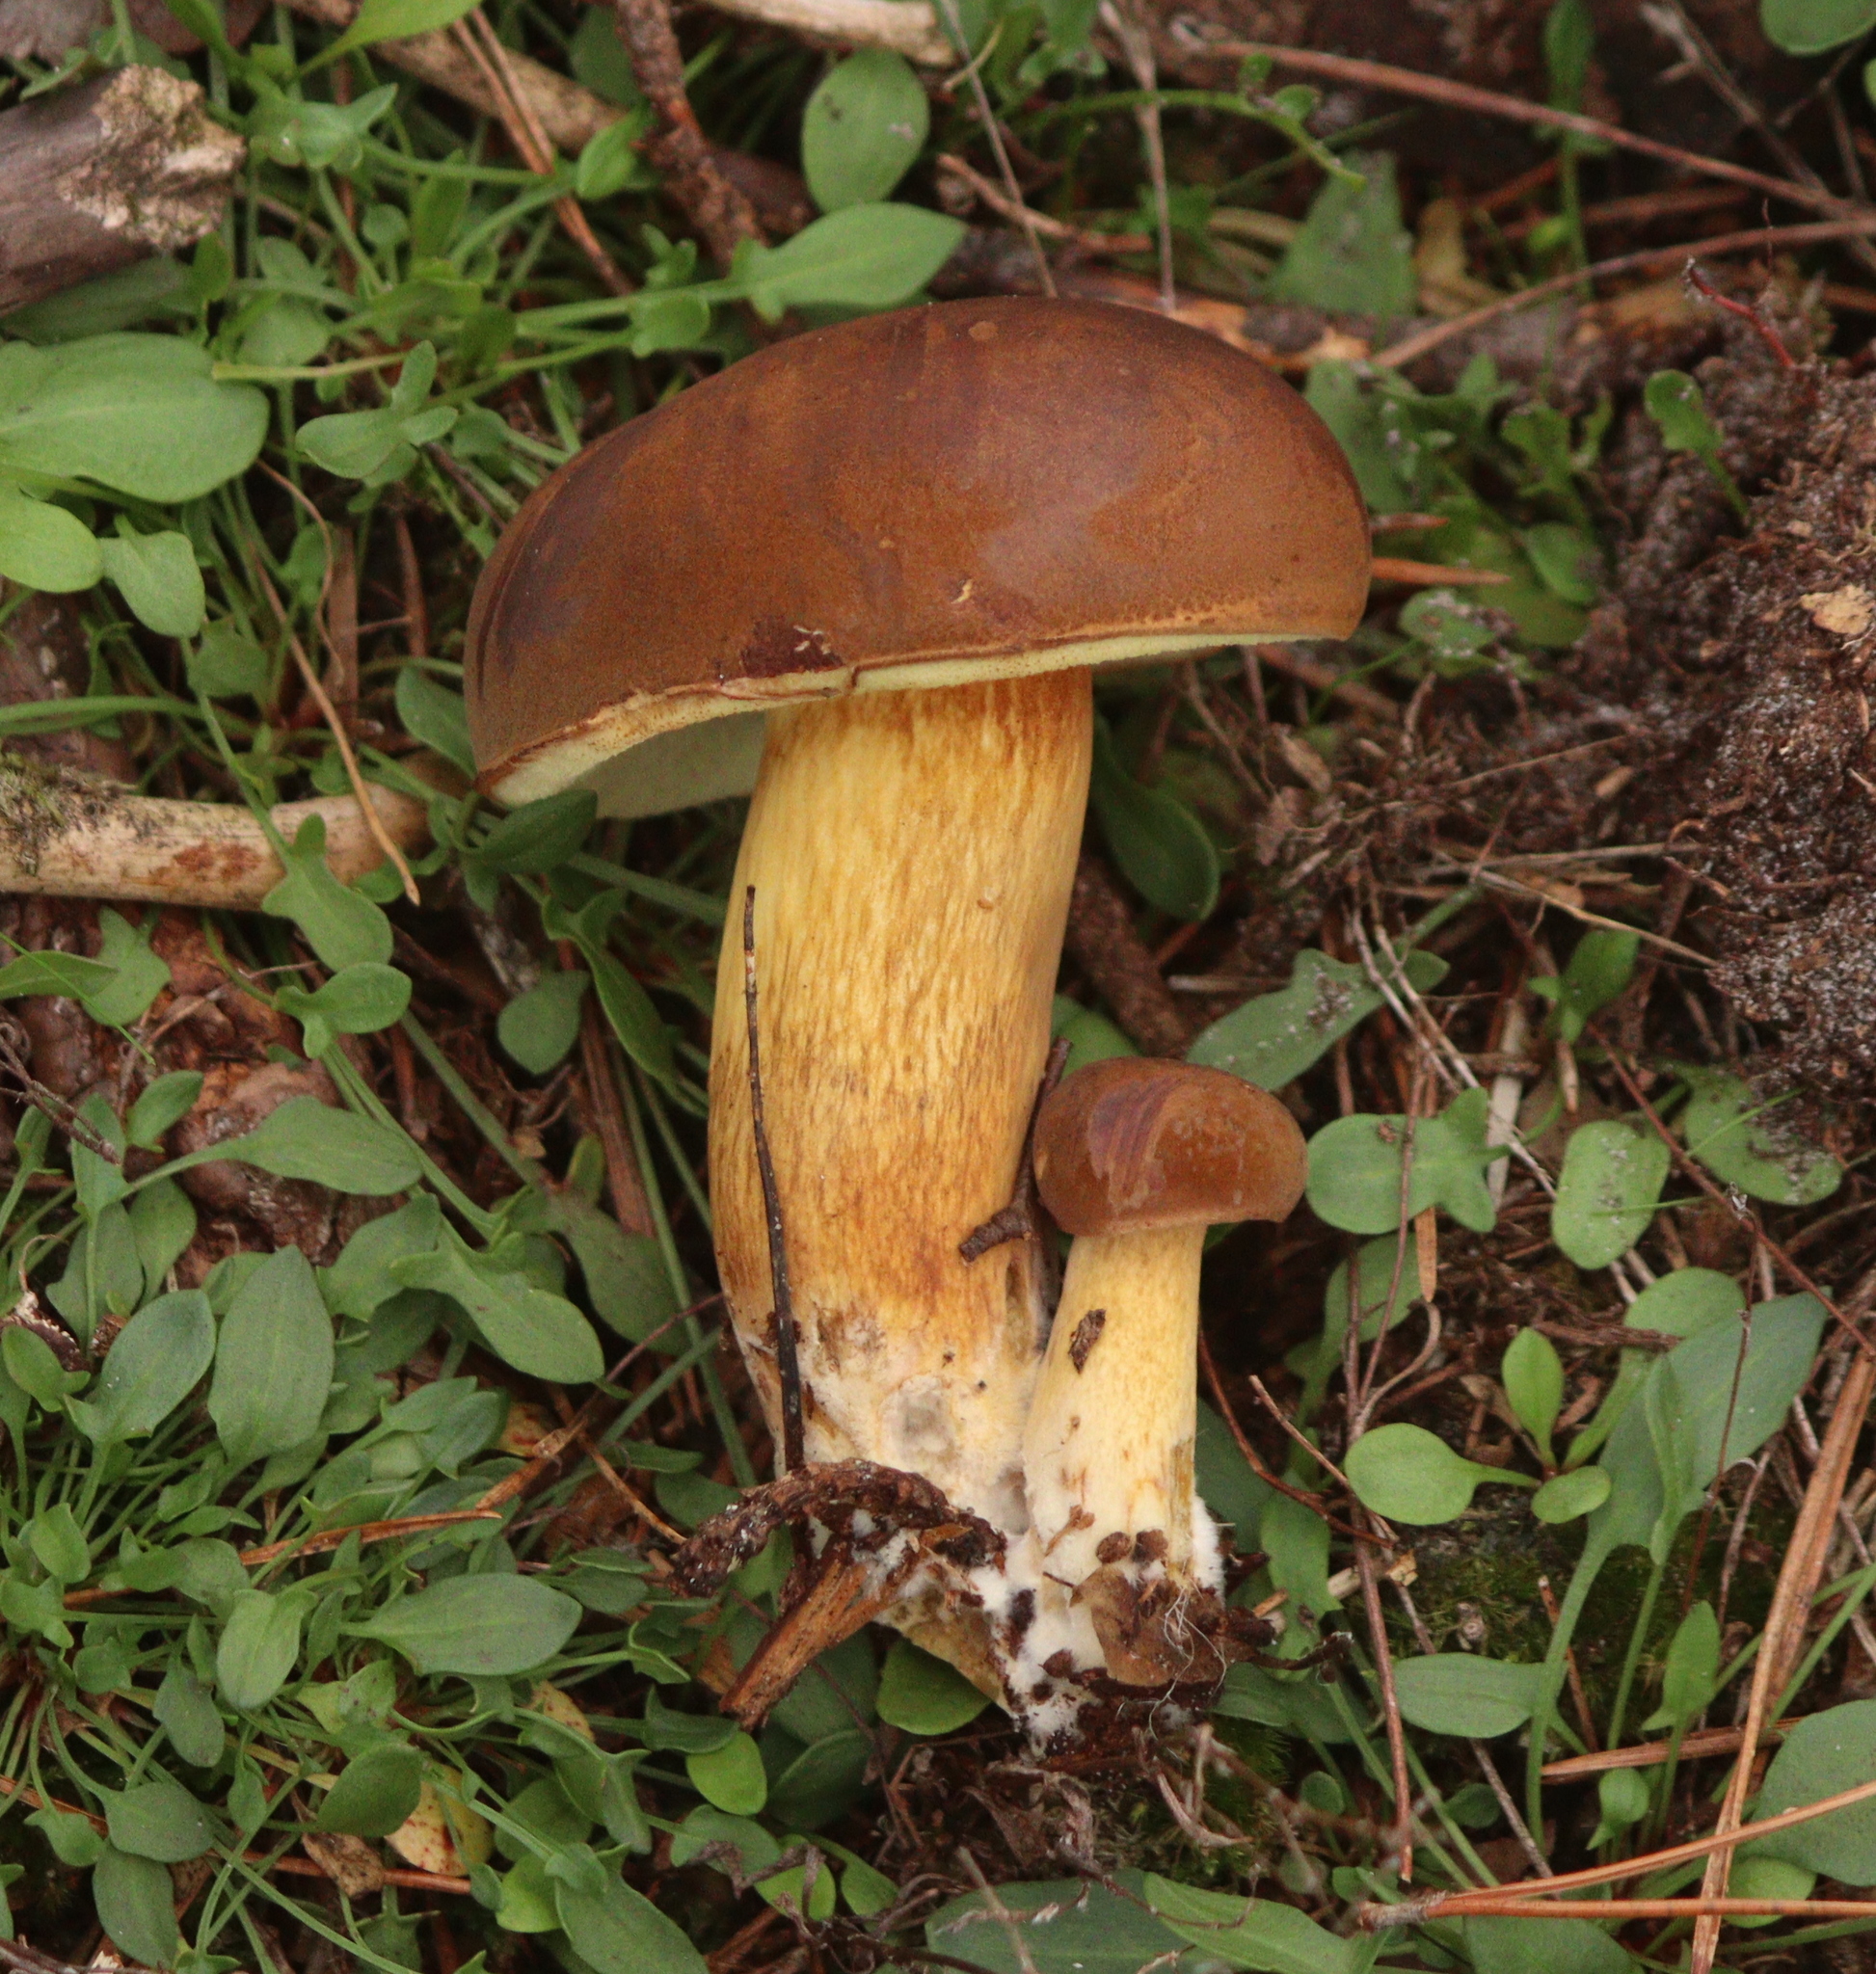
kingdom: Fungi
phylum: Basidiomycota
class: Agaricomycetes
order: Boletales
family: Boletaceae
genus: Imleria
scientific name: Imleria badia
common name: Bay bolete
